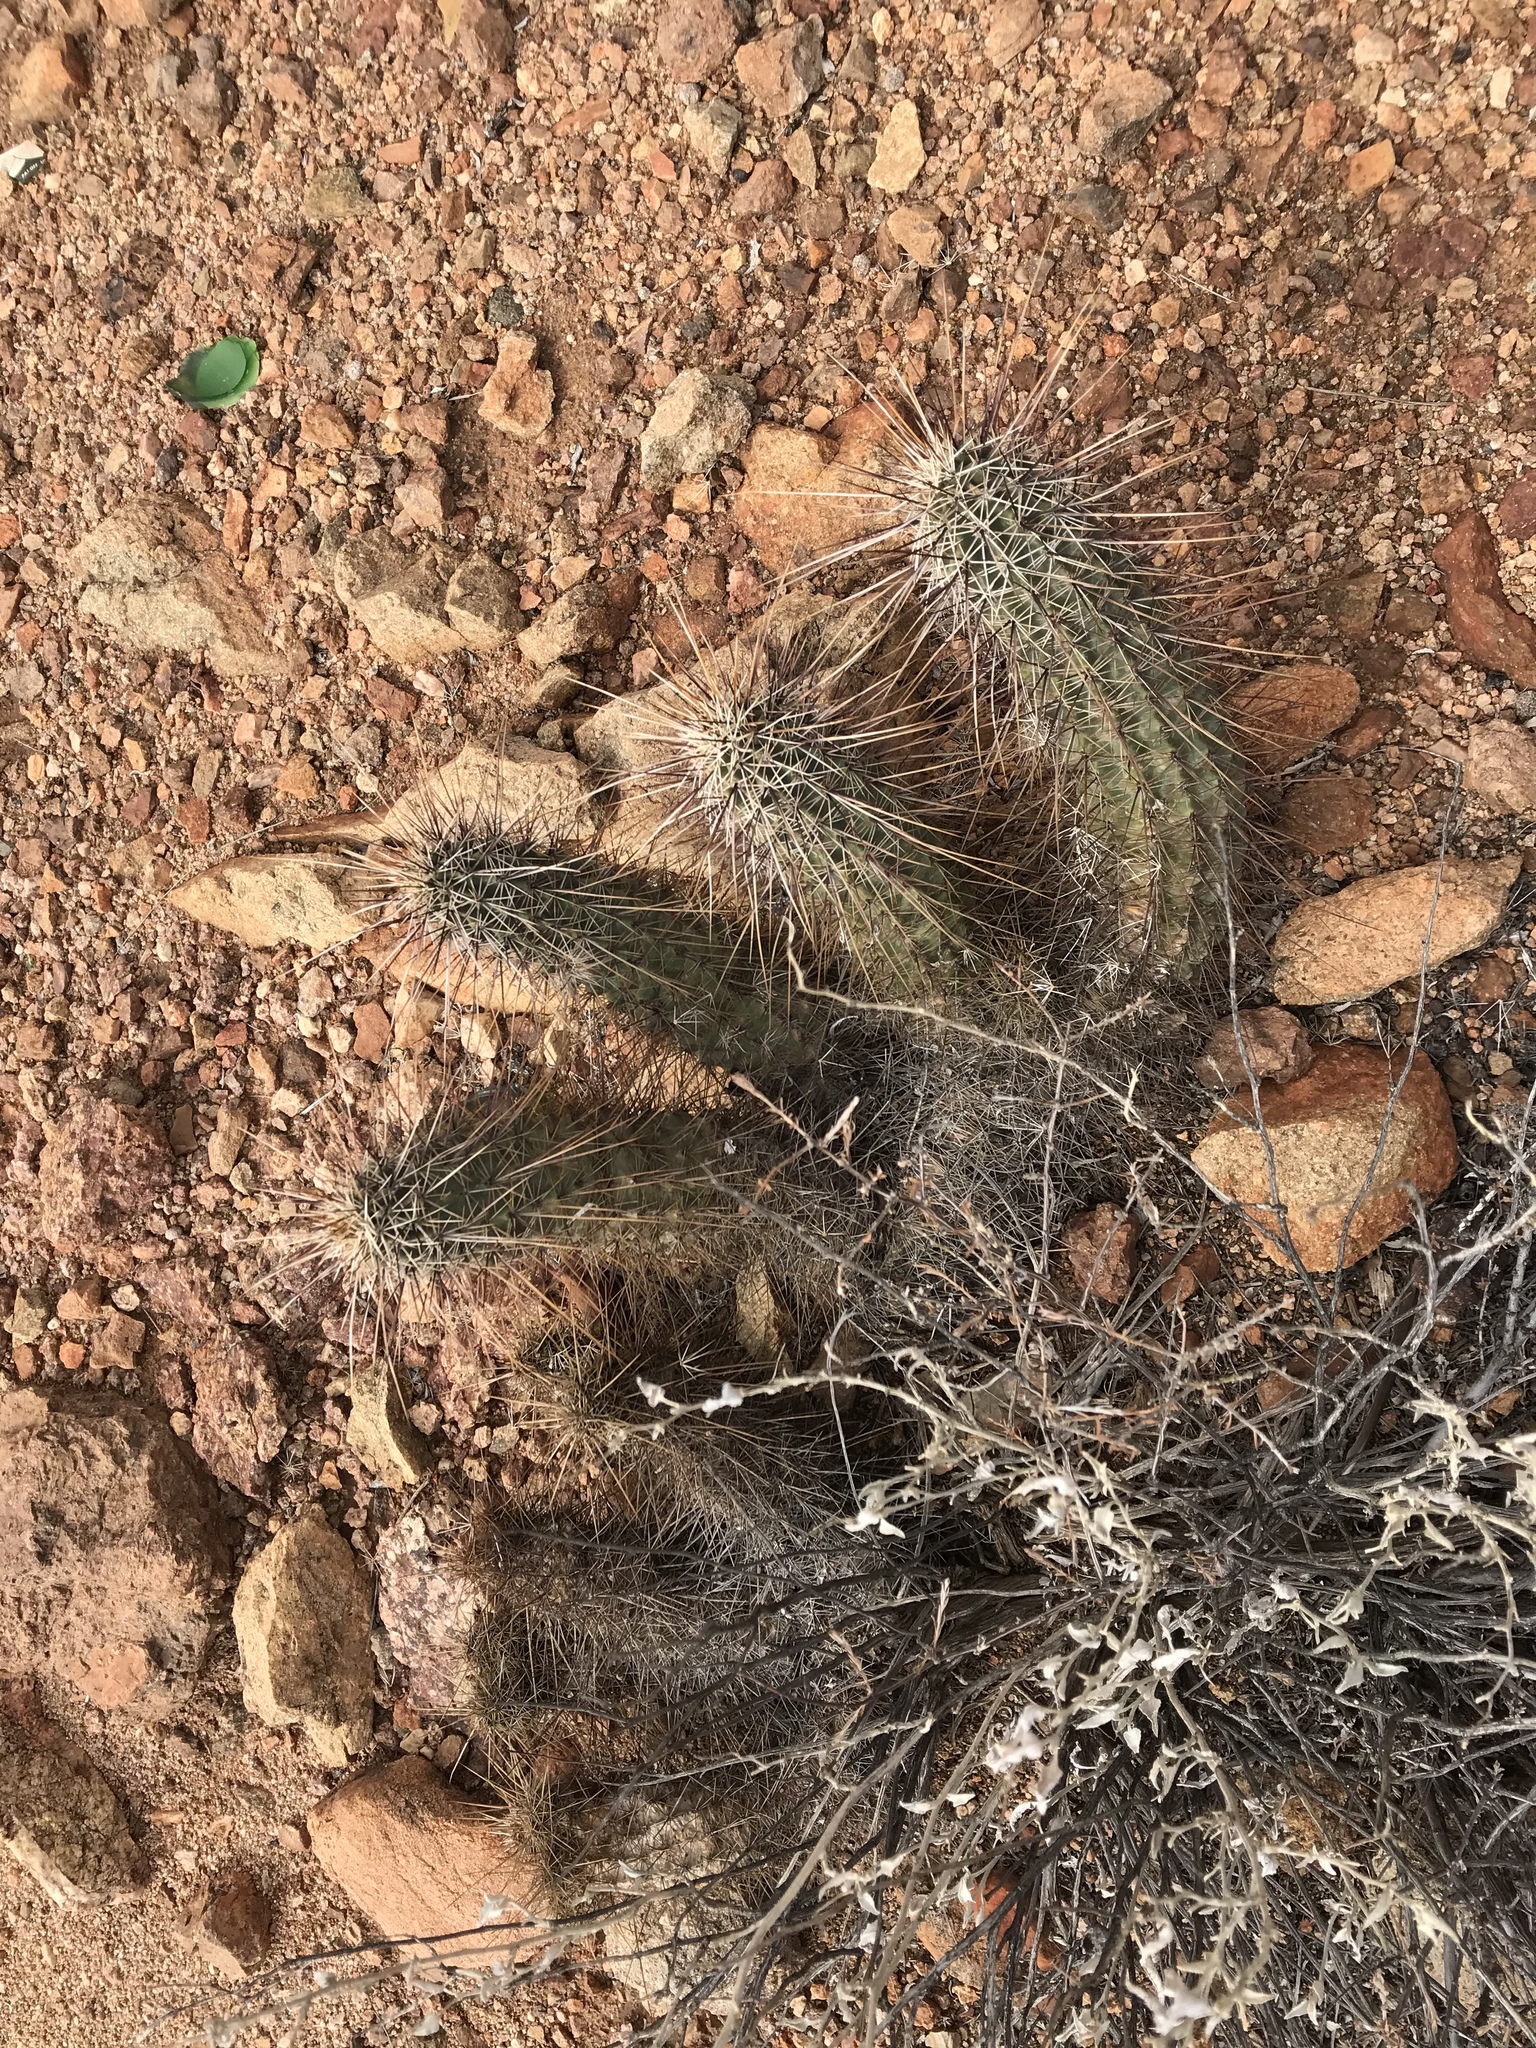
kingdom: Plantae
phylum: Tracheophyta
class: Magnoliopsida
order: Caryophyllales
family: Cactaceae
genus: Echinocereus
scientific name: Echinocereus engelmannii
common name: Engelmann's hedgehog cactus
